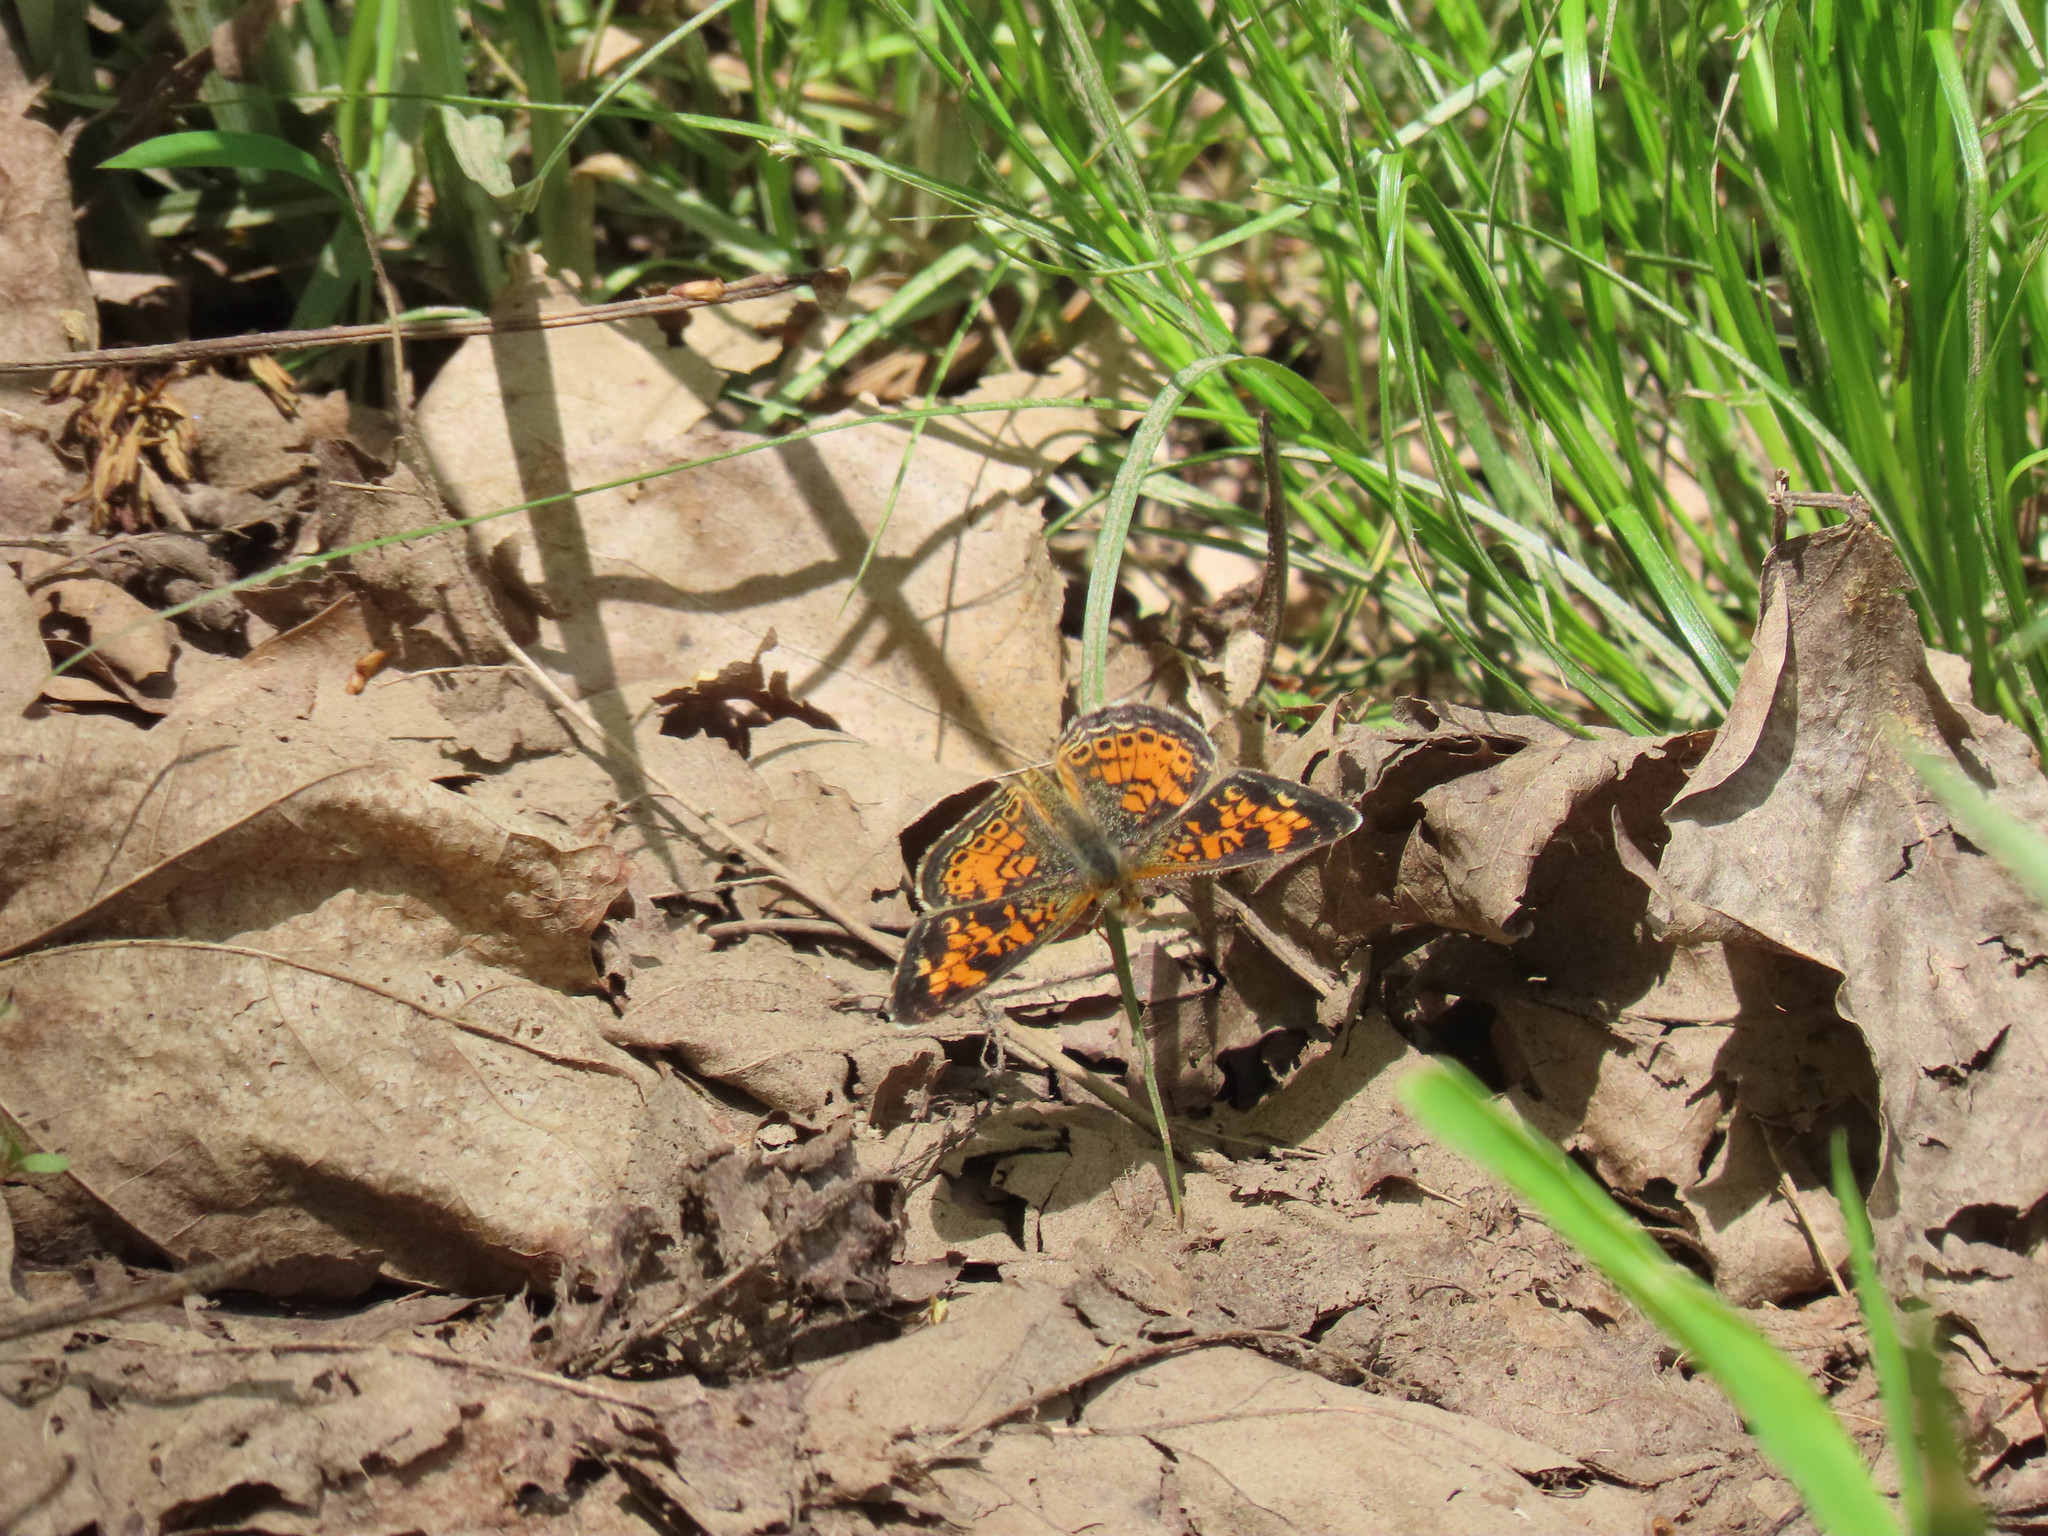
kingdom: Animalia
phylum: Arthropoda
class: Insecta
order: Lepidoptera
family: Nymphalidae
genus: Phyciodes
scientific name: Phyciodes tharos
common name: Pearl crescent
